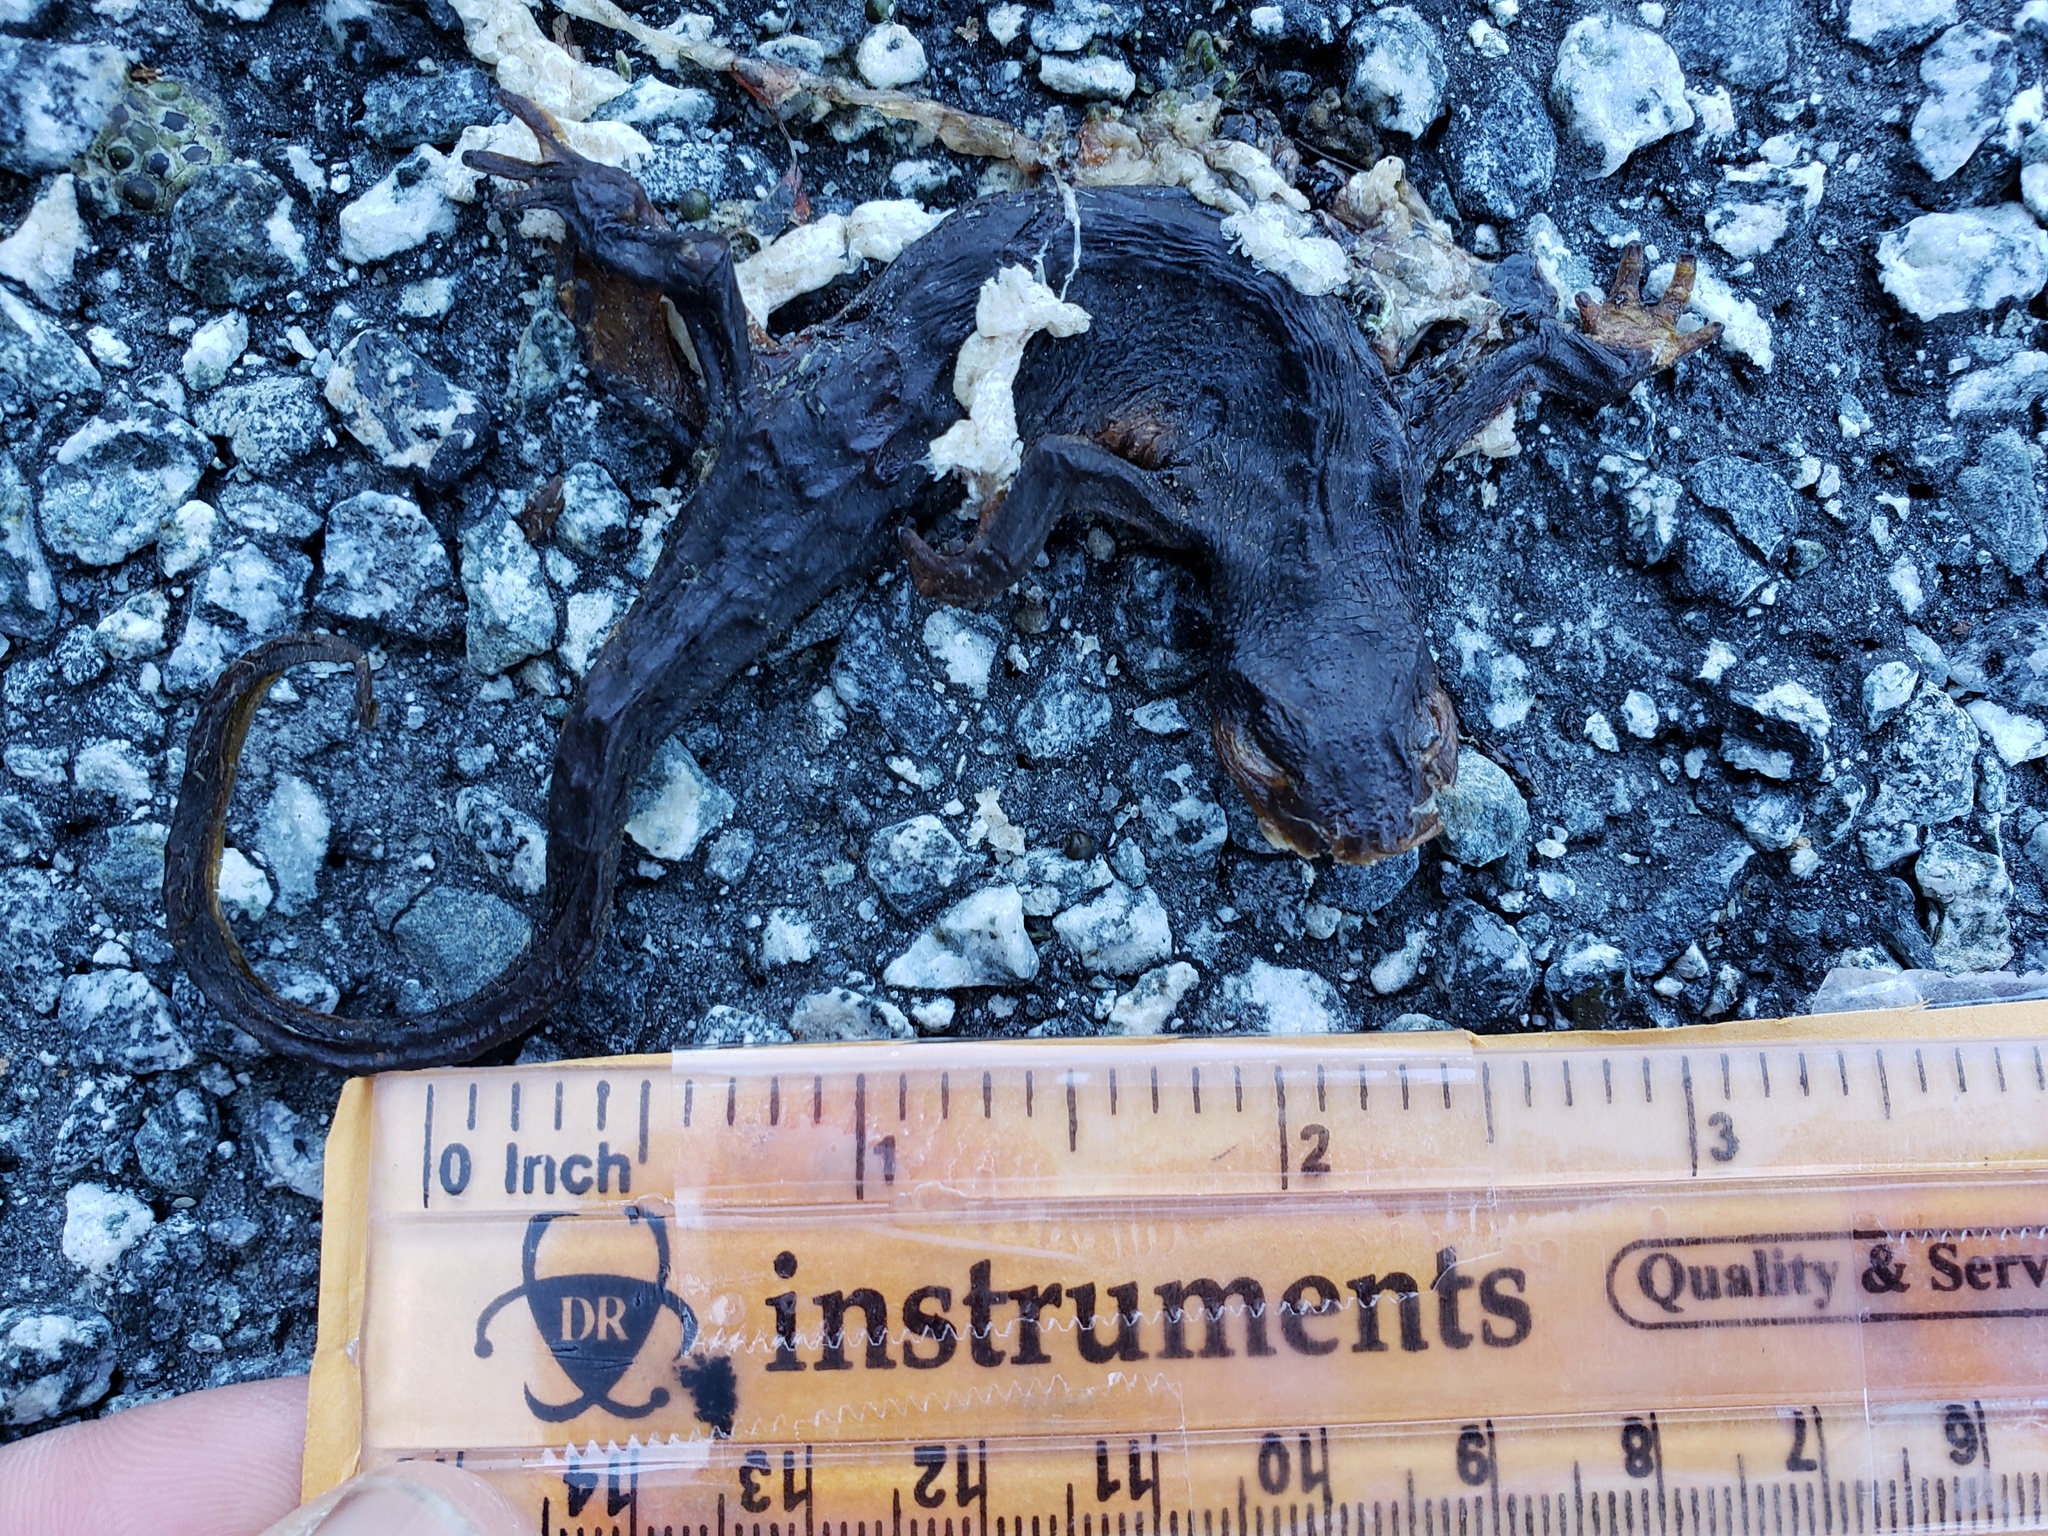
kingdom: Animalia
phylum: Chordata
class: Amphibia
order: Caudata
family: Salamandridae
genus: Taricha
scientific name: Taricha
